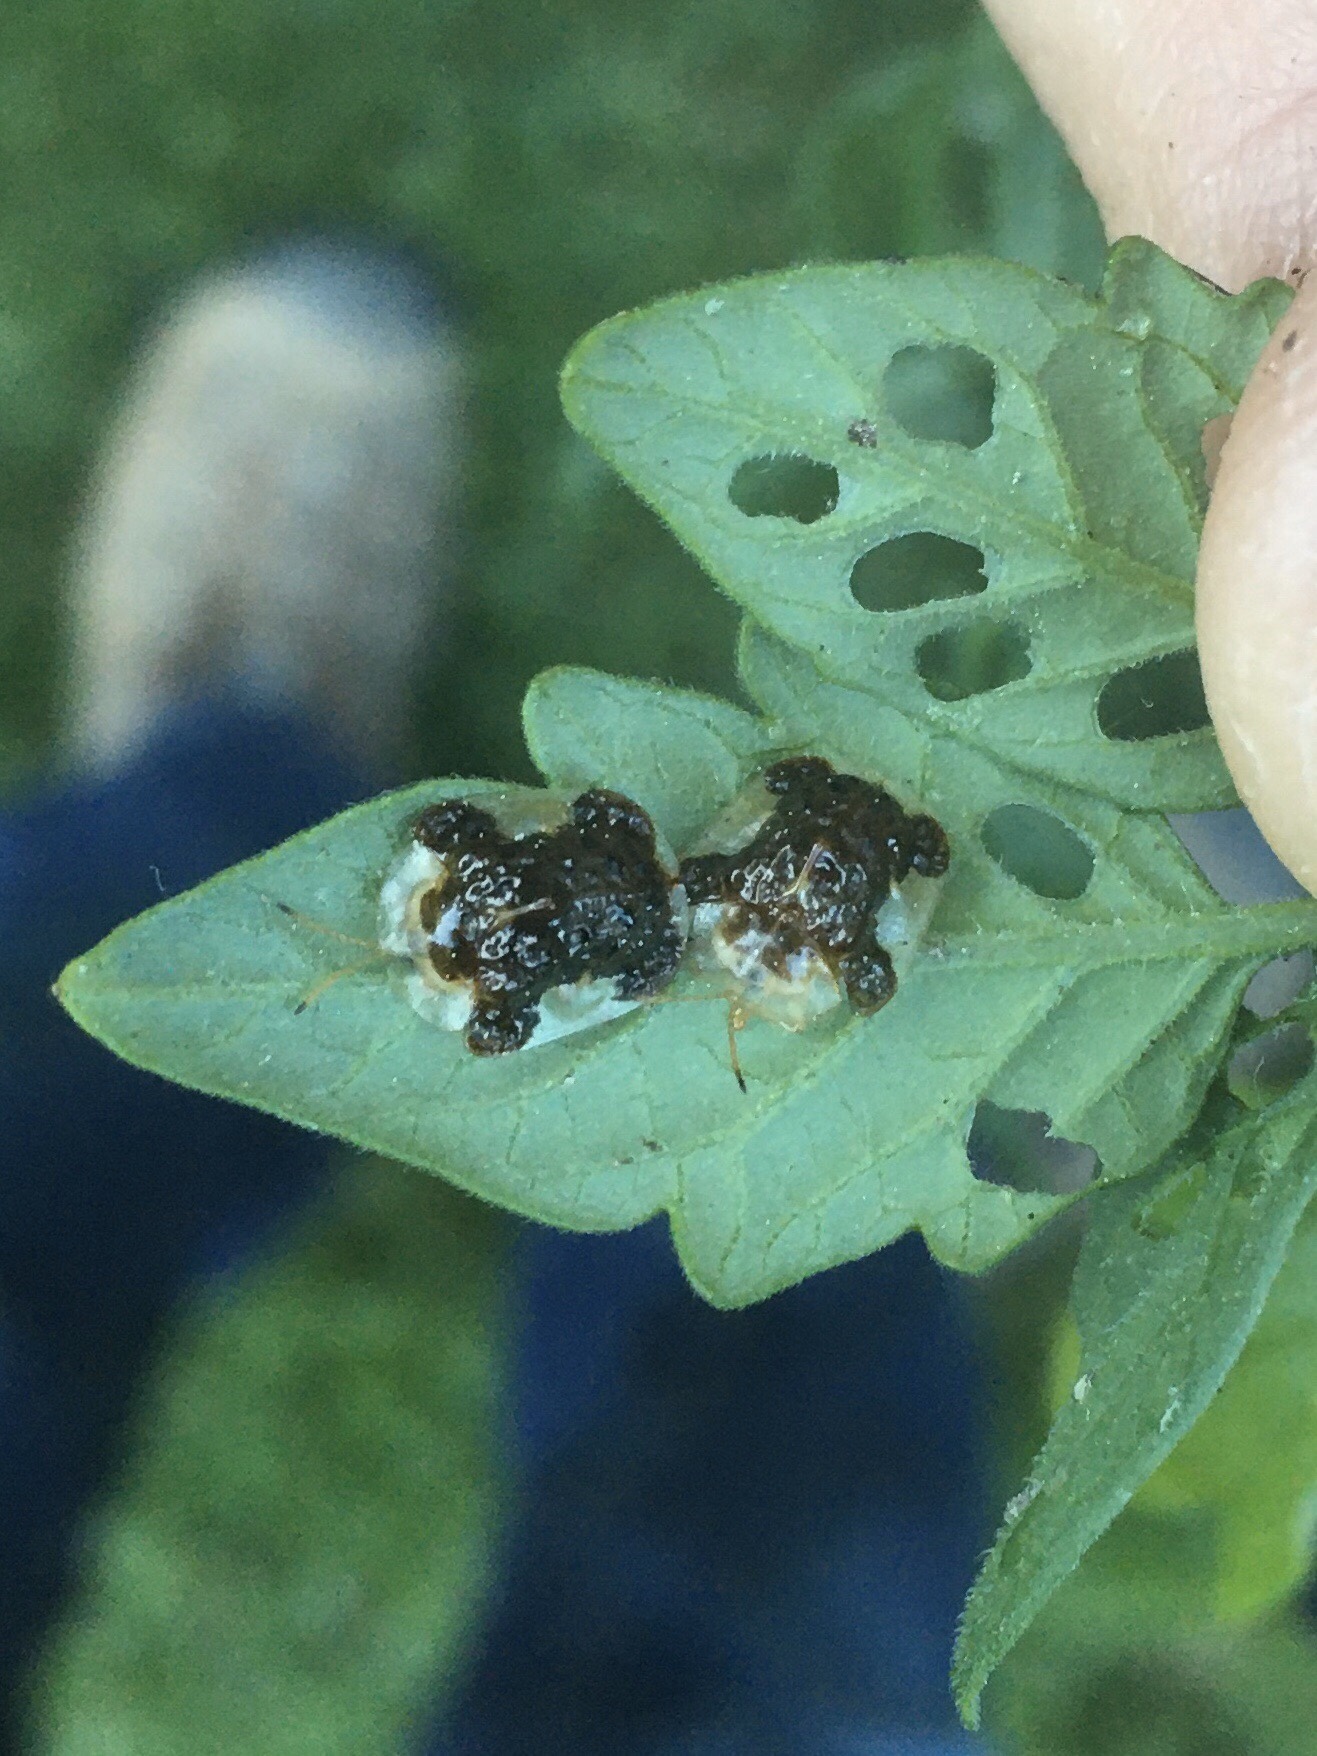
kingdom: Animalia
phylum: Arthropoda
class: Insecta
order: Coleoptera
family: Chrysomelidae
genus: Helocassis
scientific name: Helocassis clavata
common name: Clavate tortoise beetle
